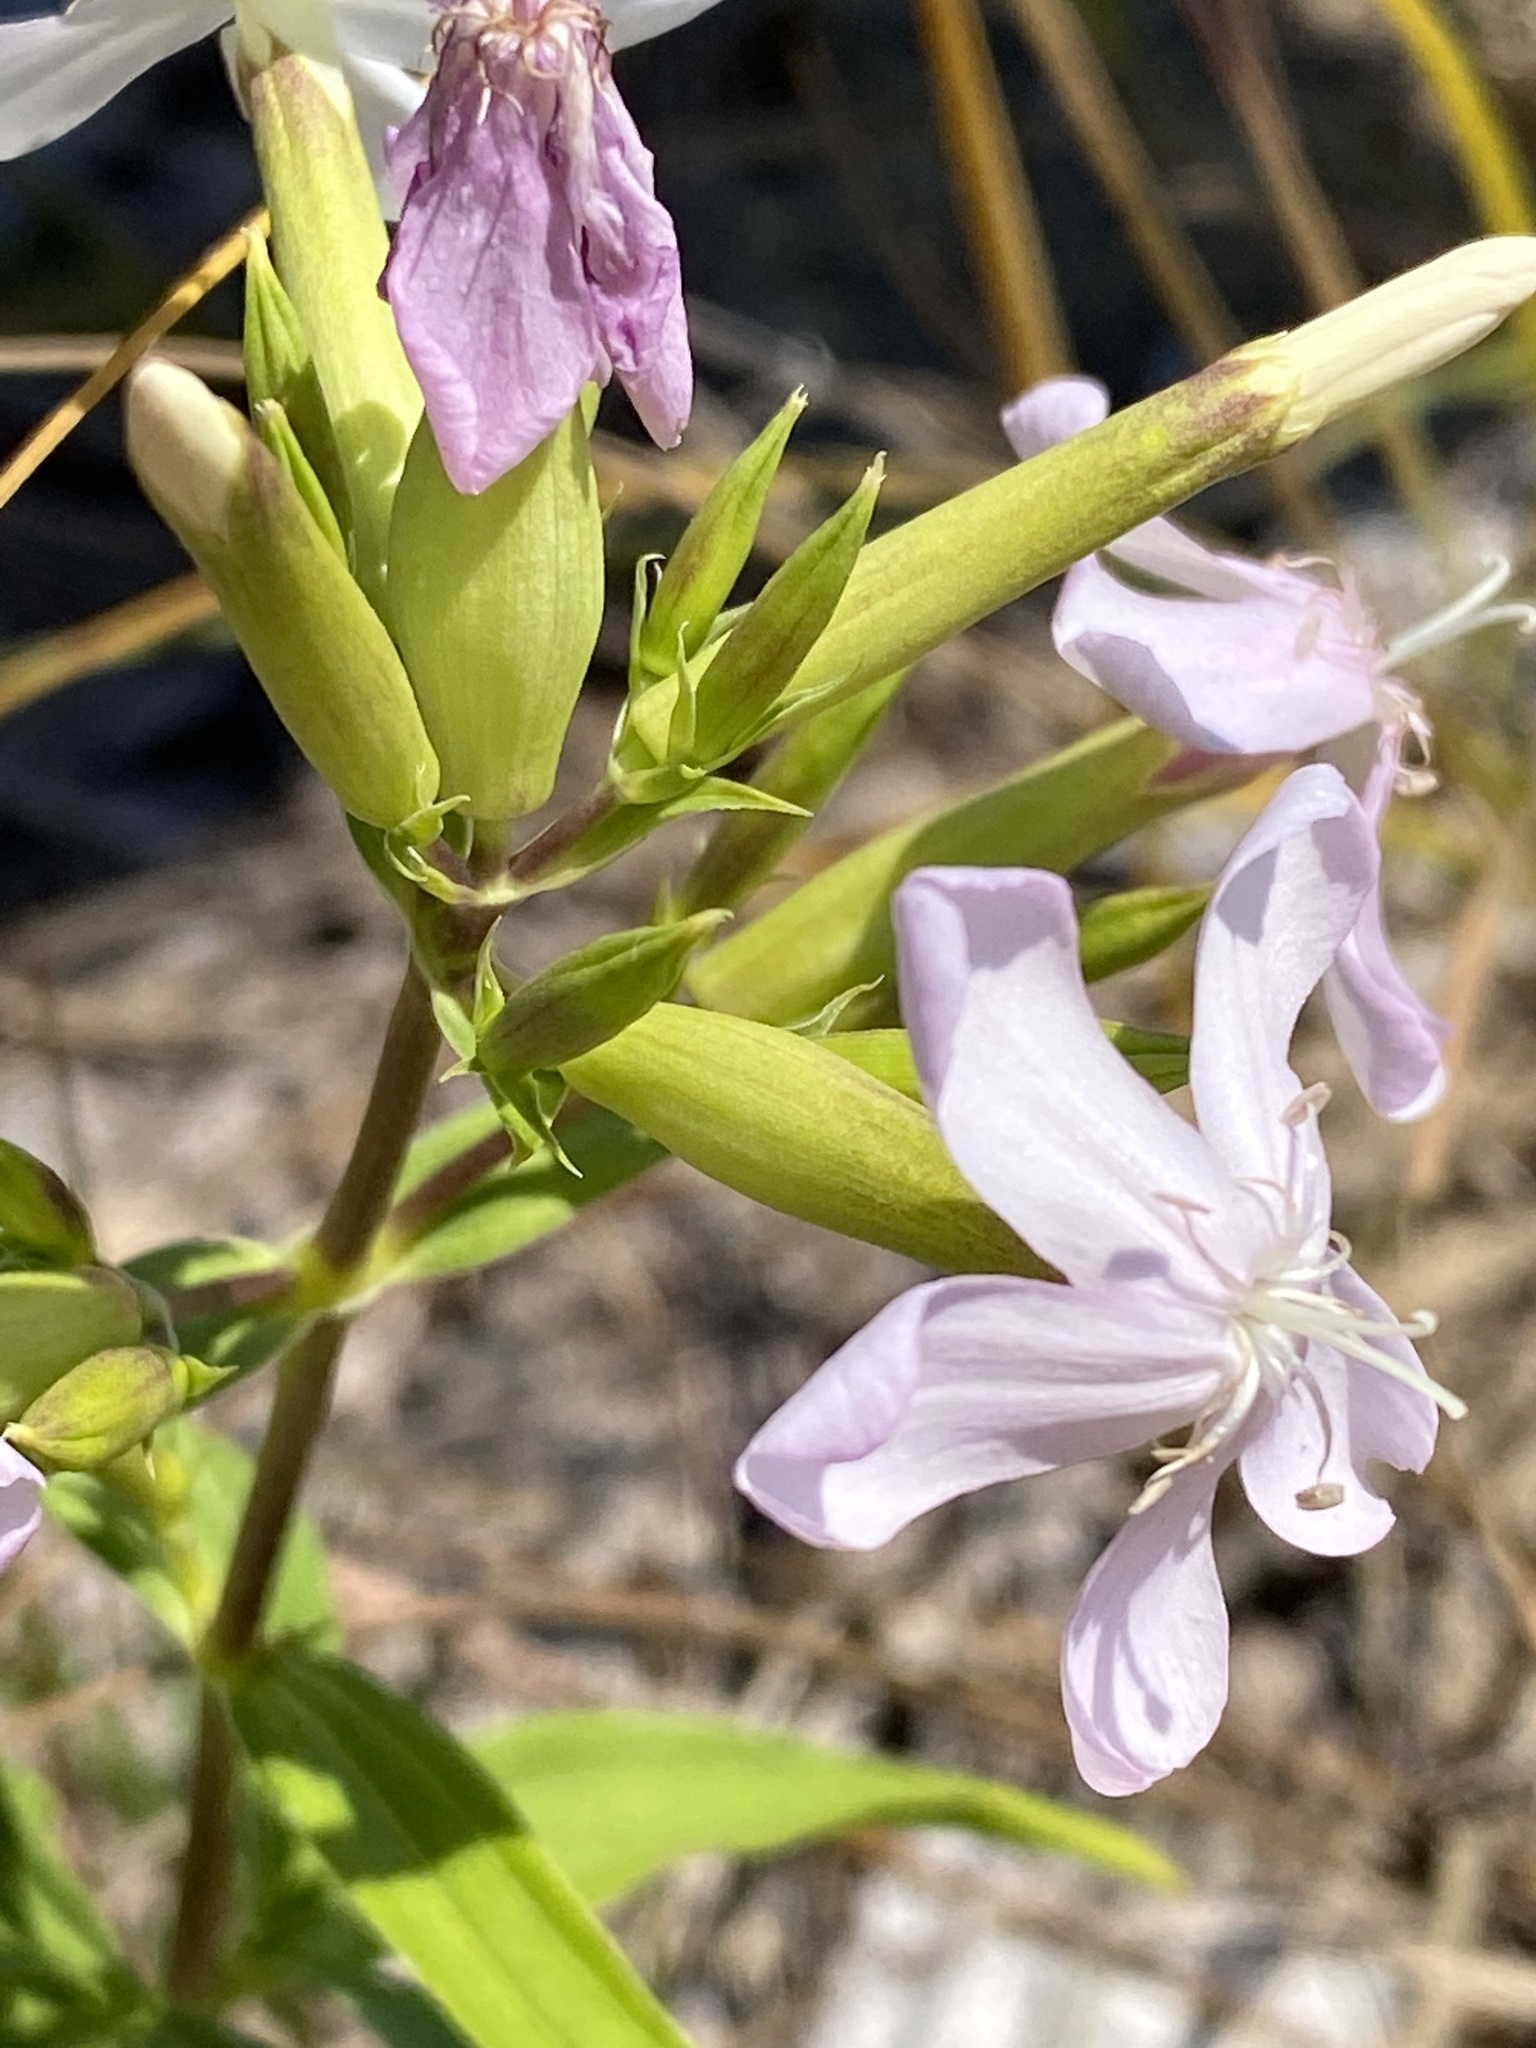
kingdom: Plantae
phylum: Tracheophyta
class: Magnoliopsida
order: Caryophyllales
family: Caryophyllaceae
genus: Saponaria
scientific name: Saponaria officinalis
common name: Soapwort
